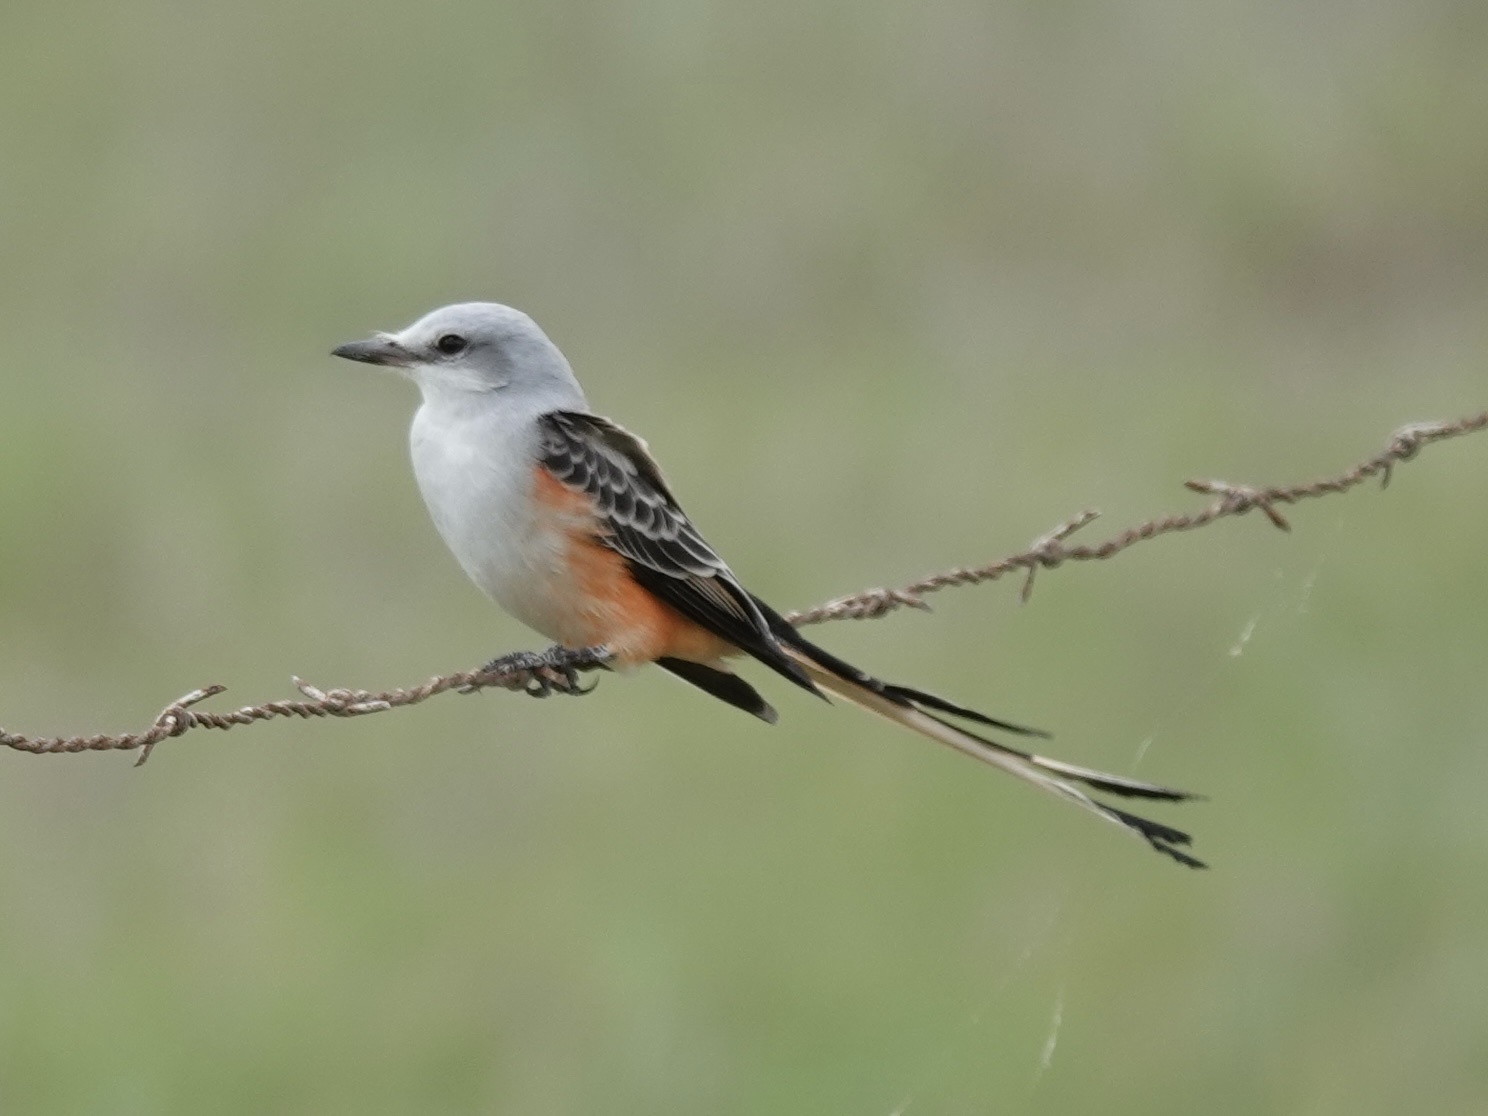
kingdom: Animalia
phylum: Chordata
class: Aves
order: Passeriformes
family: Tyrannidae
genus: Tyrannus
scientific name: Tyrannus forficatus
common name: Scissor-tailed flycatcher
